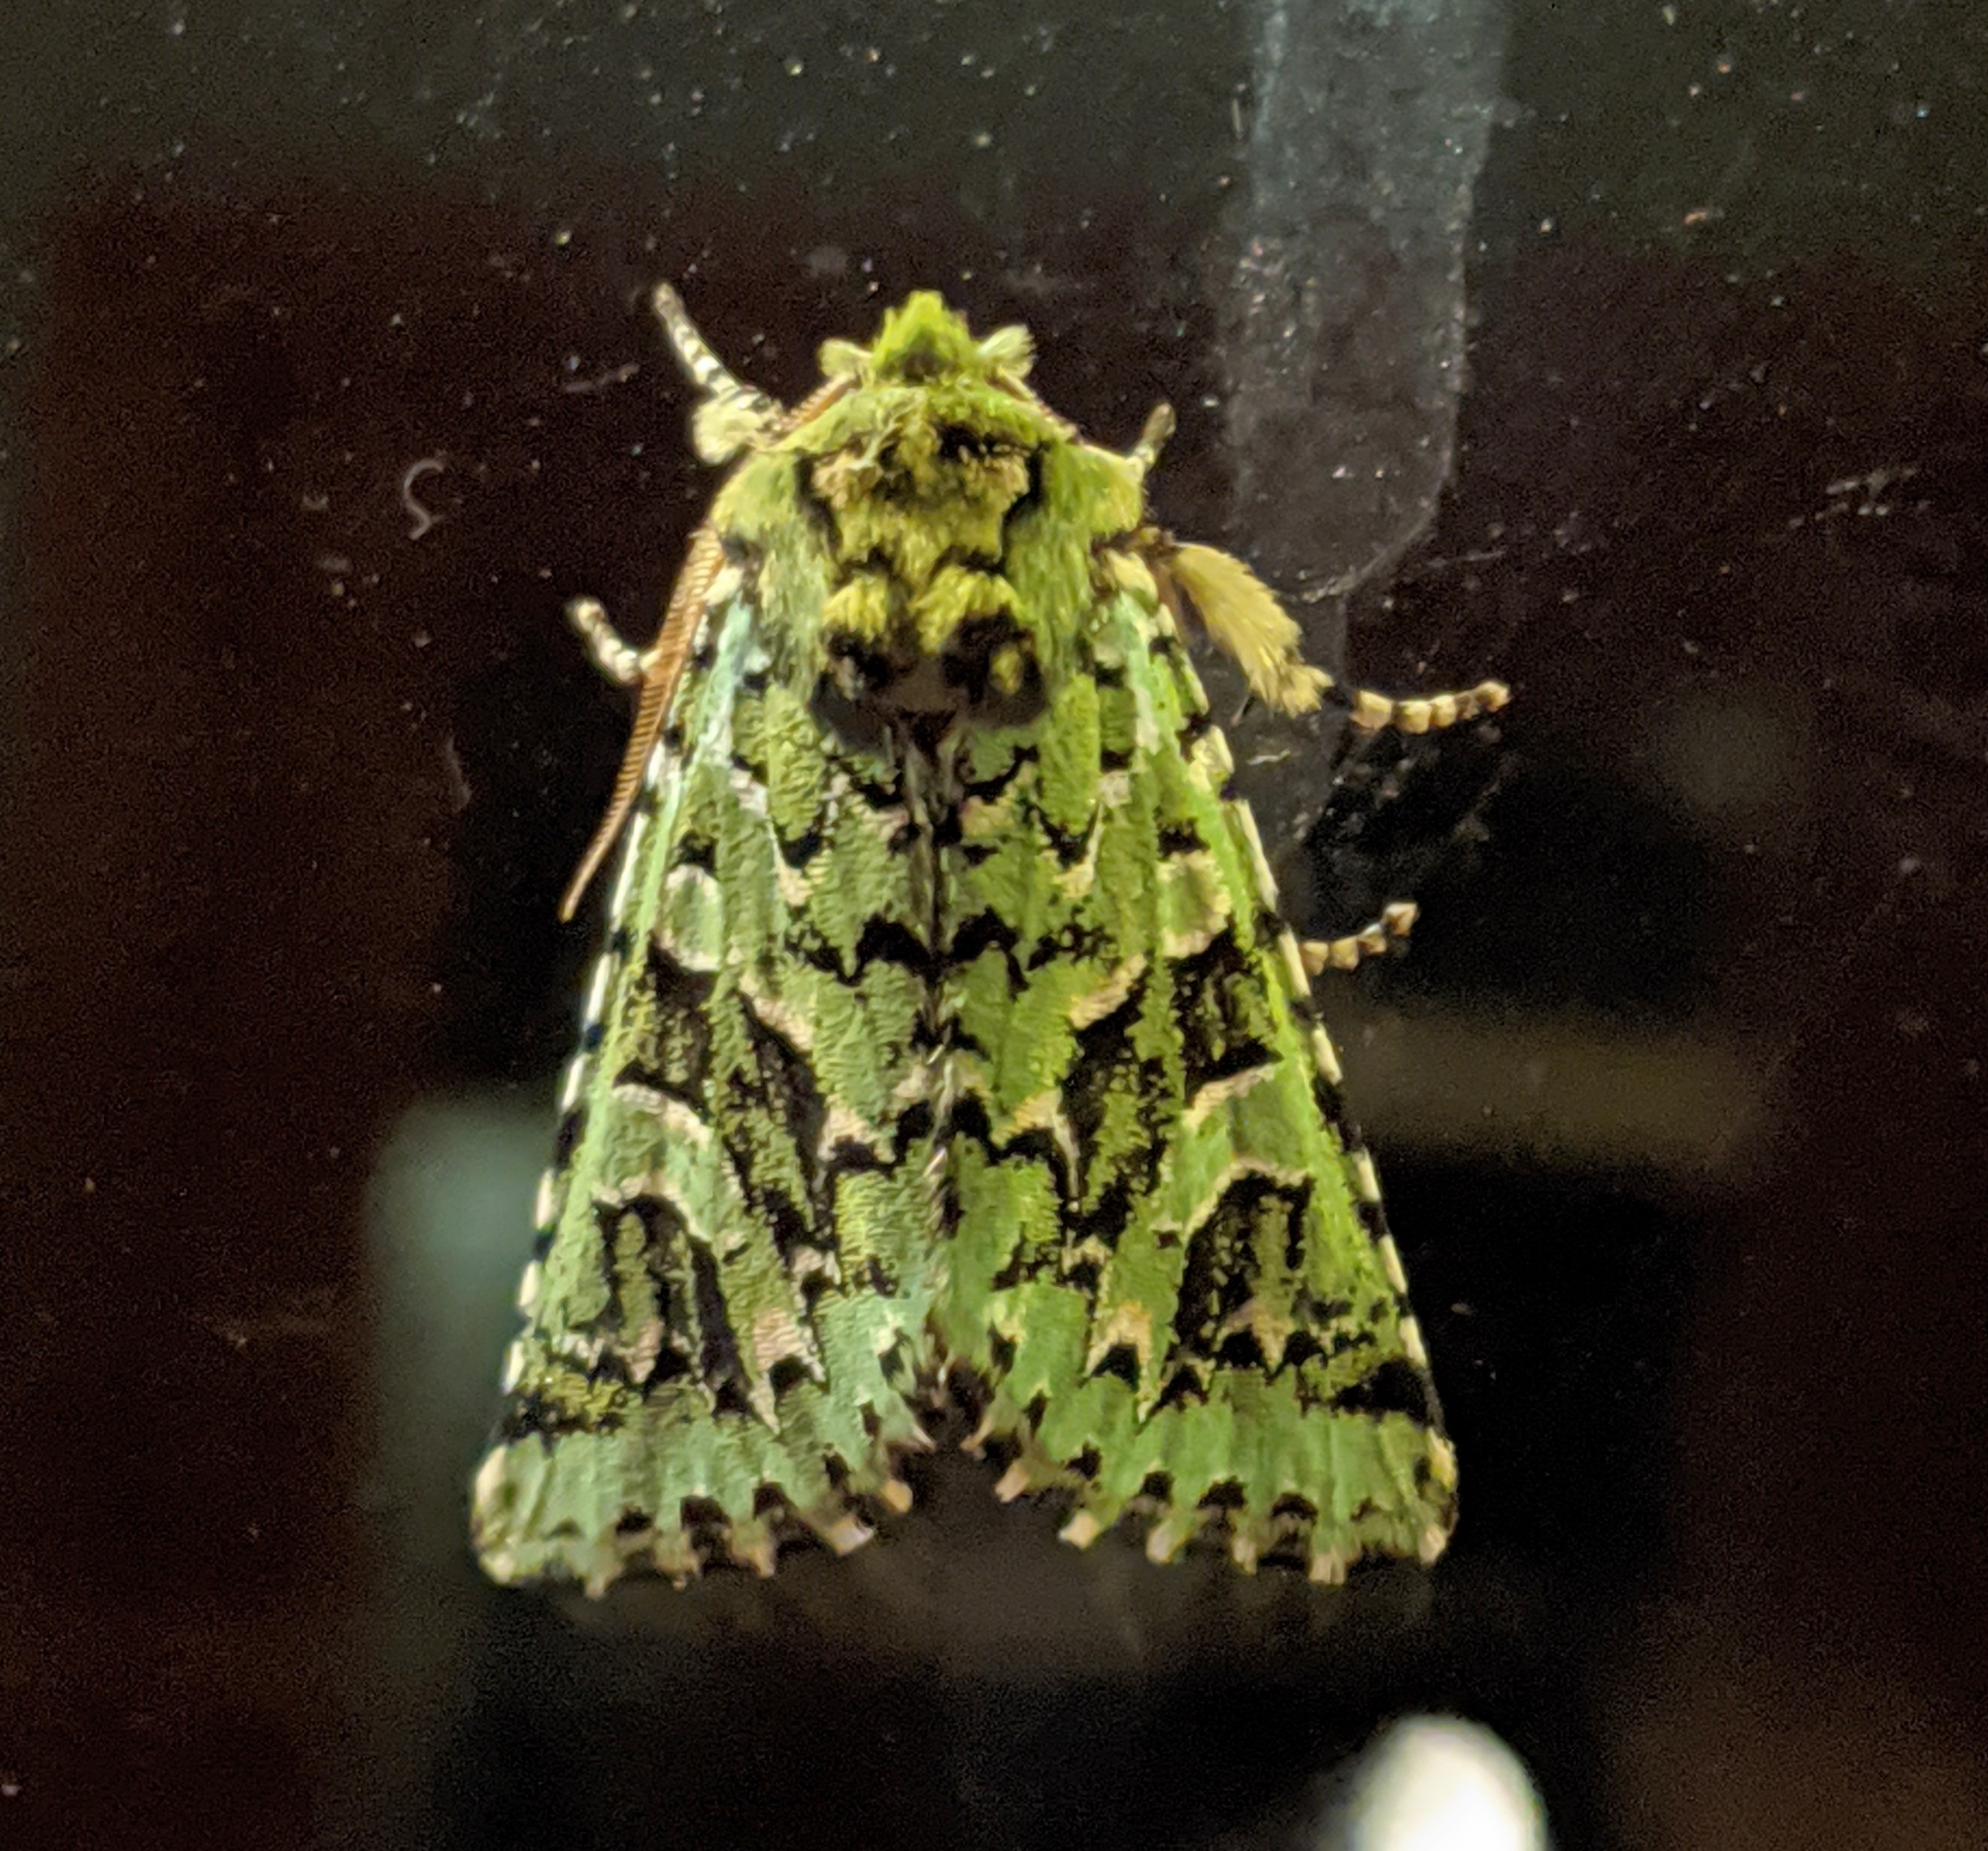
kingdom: Animalia
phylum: Arthropoda
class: Insecta
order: Lepidoptera
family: Noctuidae
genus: Feralia
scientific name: Feralia comstocki
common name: Comstock's sallow
